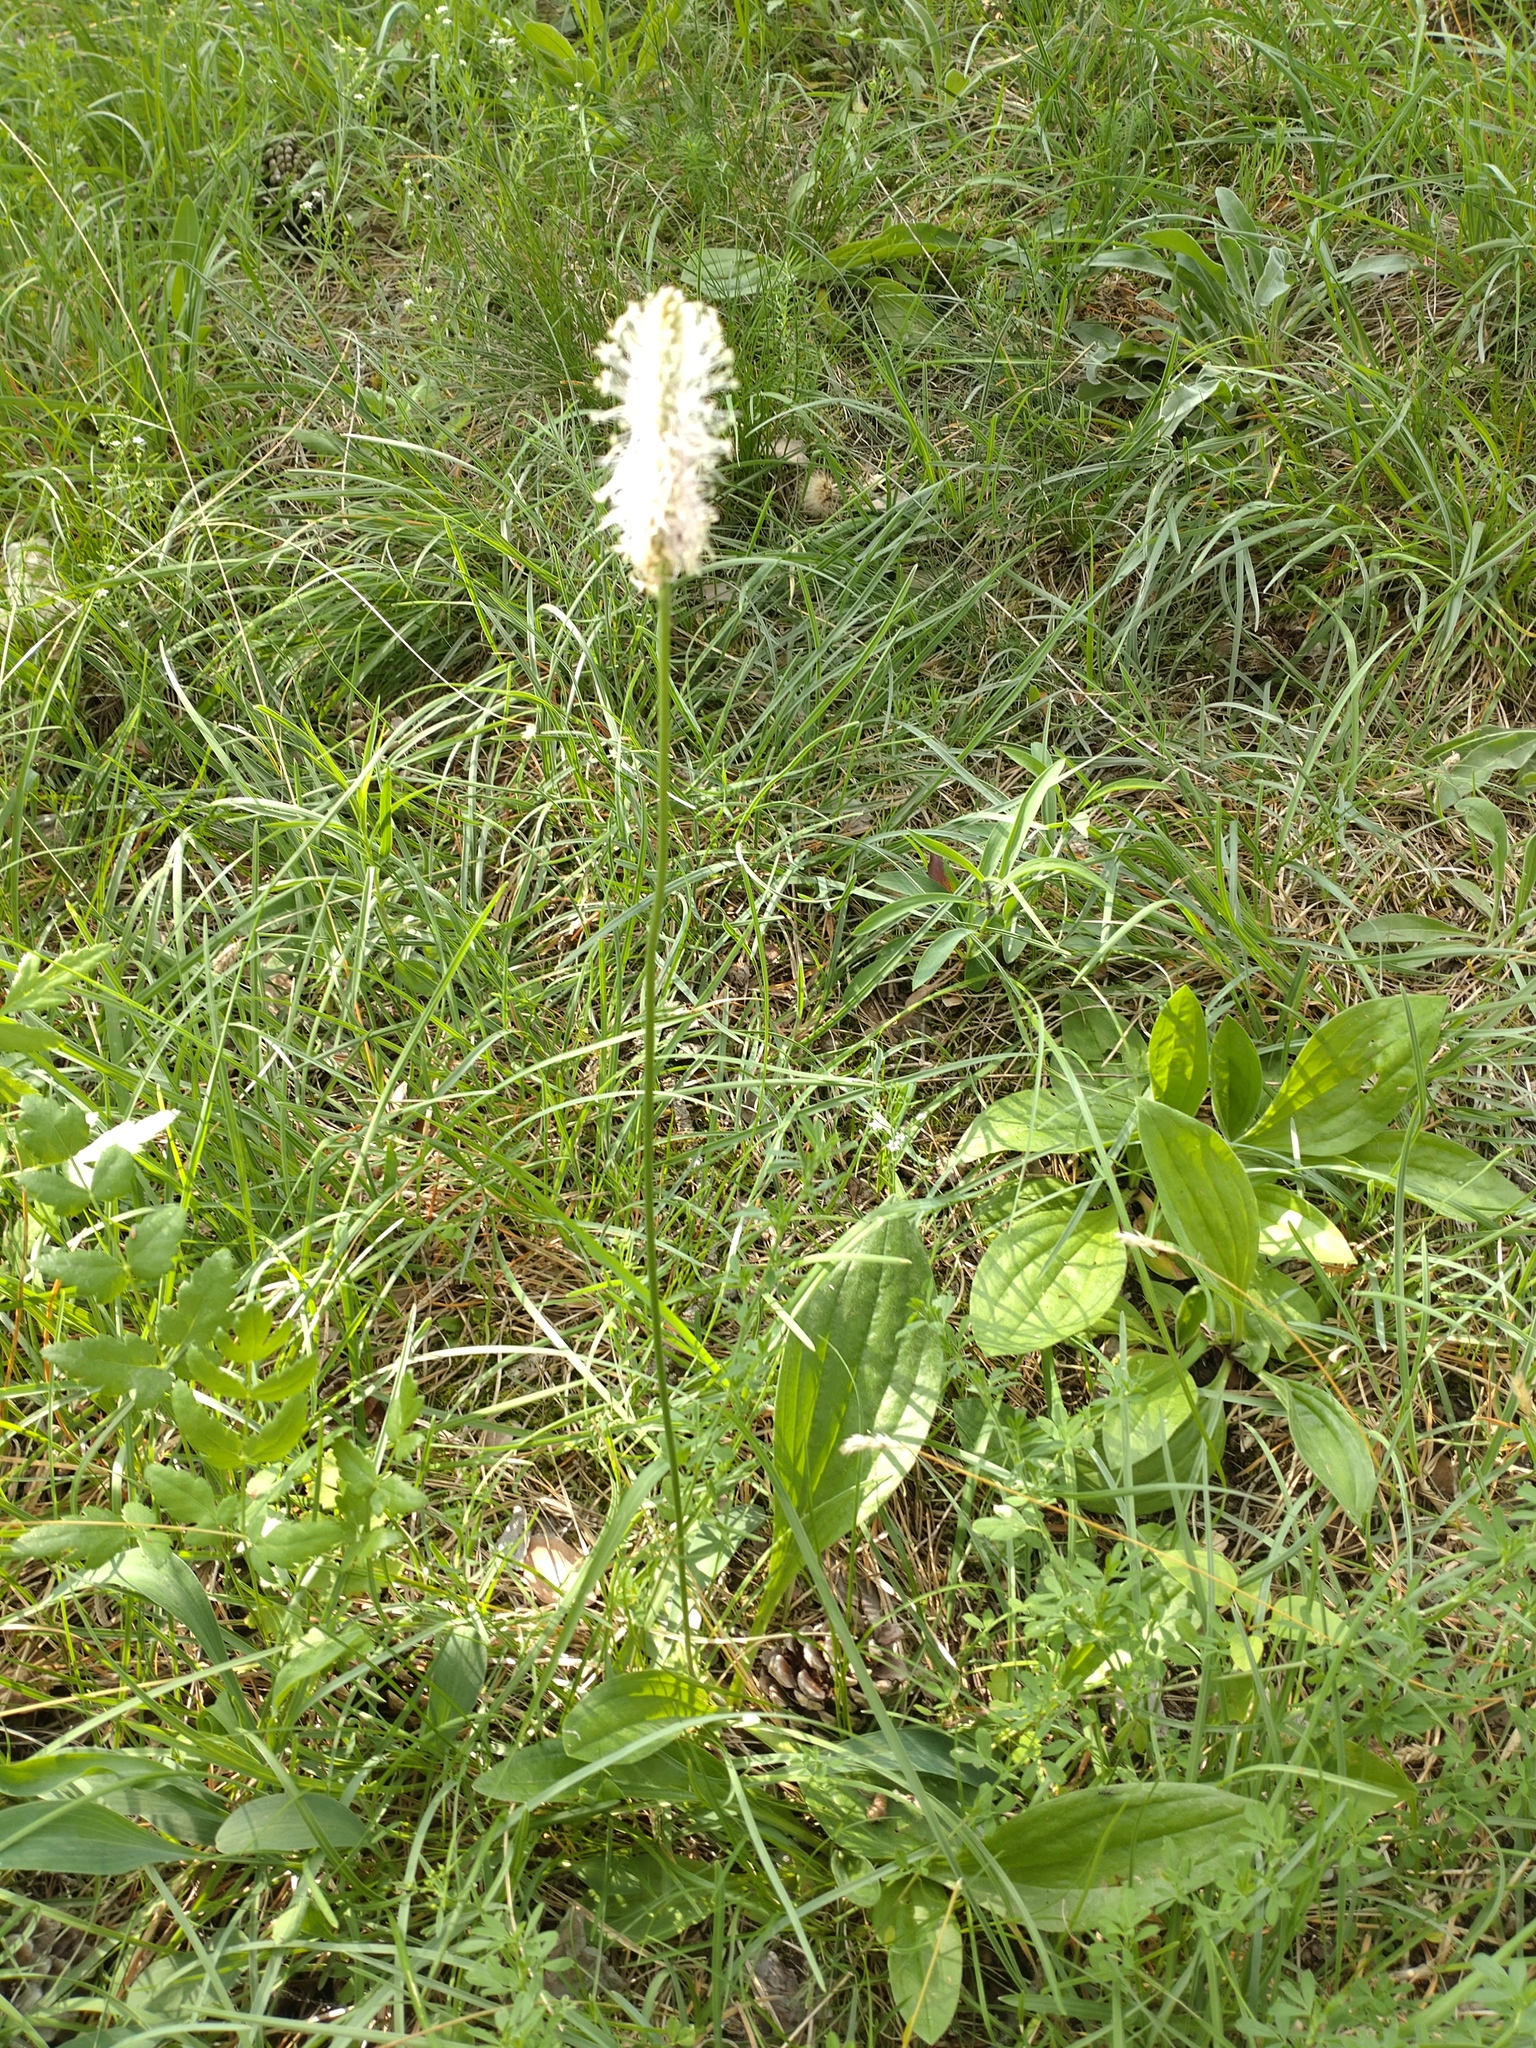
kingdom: Plantae
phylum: Tracheophyta
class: Magnoliopsida
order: Lamiales
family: Plantaginaceae
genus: Plantago
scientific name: Plantago media
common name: Hoary plantain
